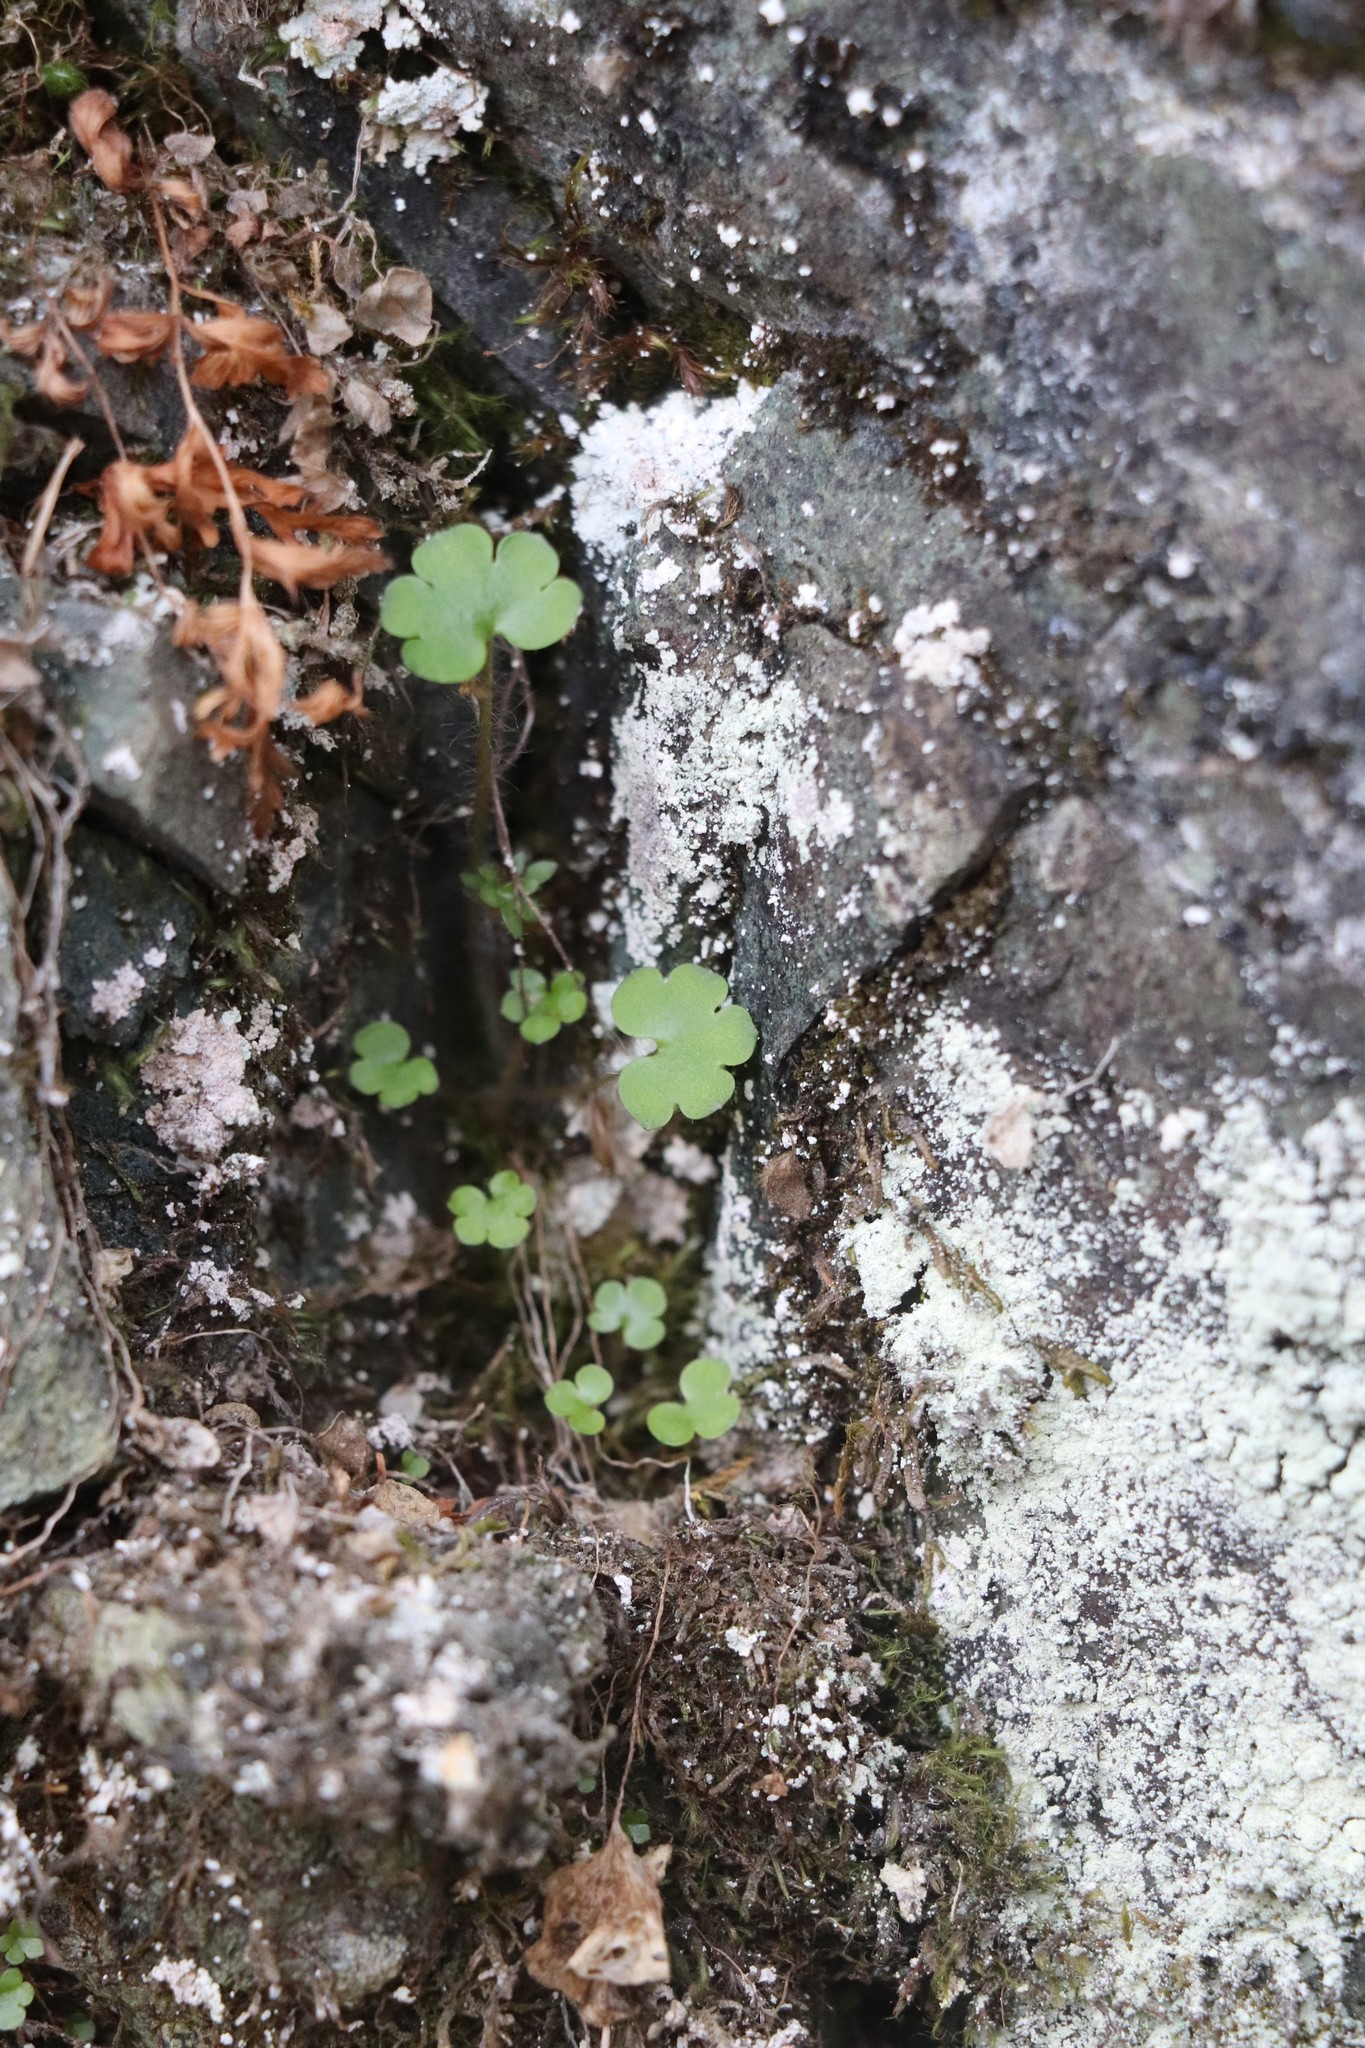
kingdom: Plantae
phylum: Tracheophyta
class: Magnoliopsida
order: Saxifragales
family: Saxifragaceae
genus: Saxifraga
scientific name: Saxifraga sibirica
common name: Siberian saxifrage
